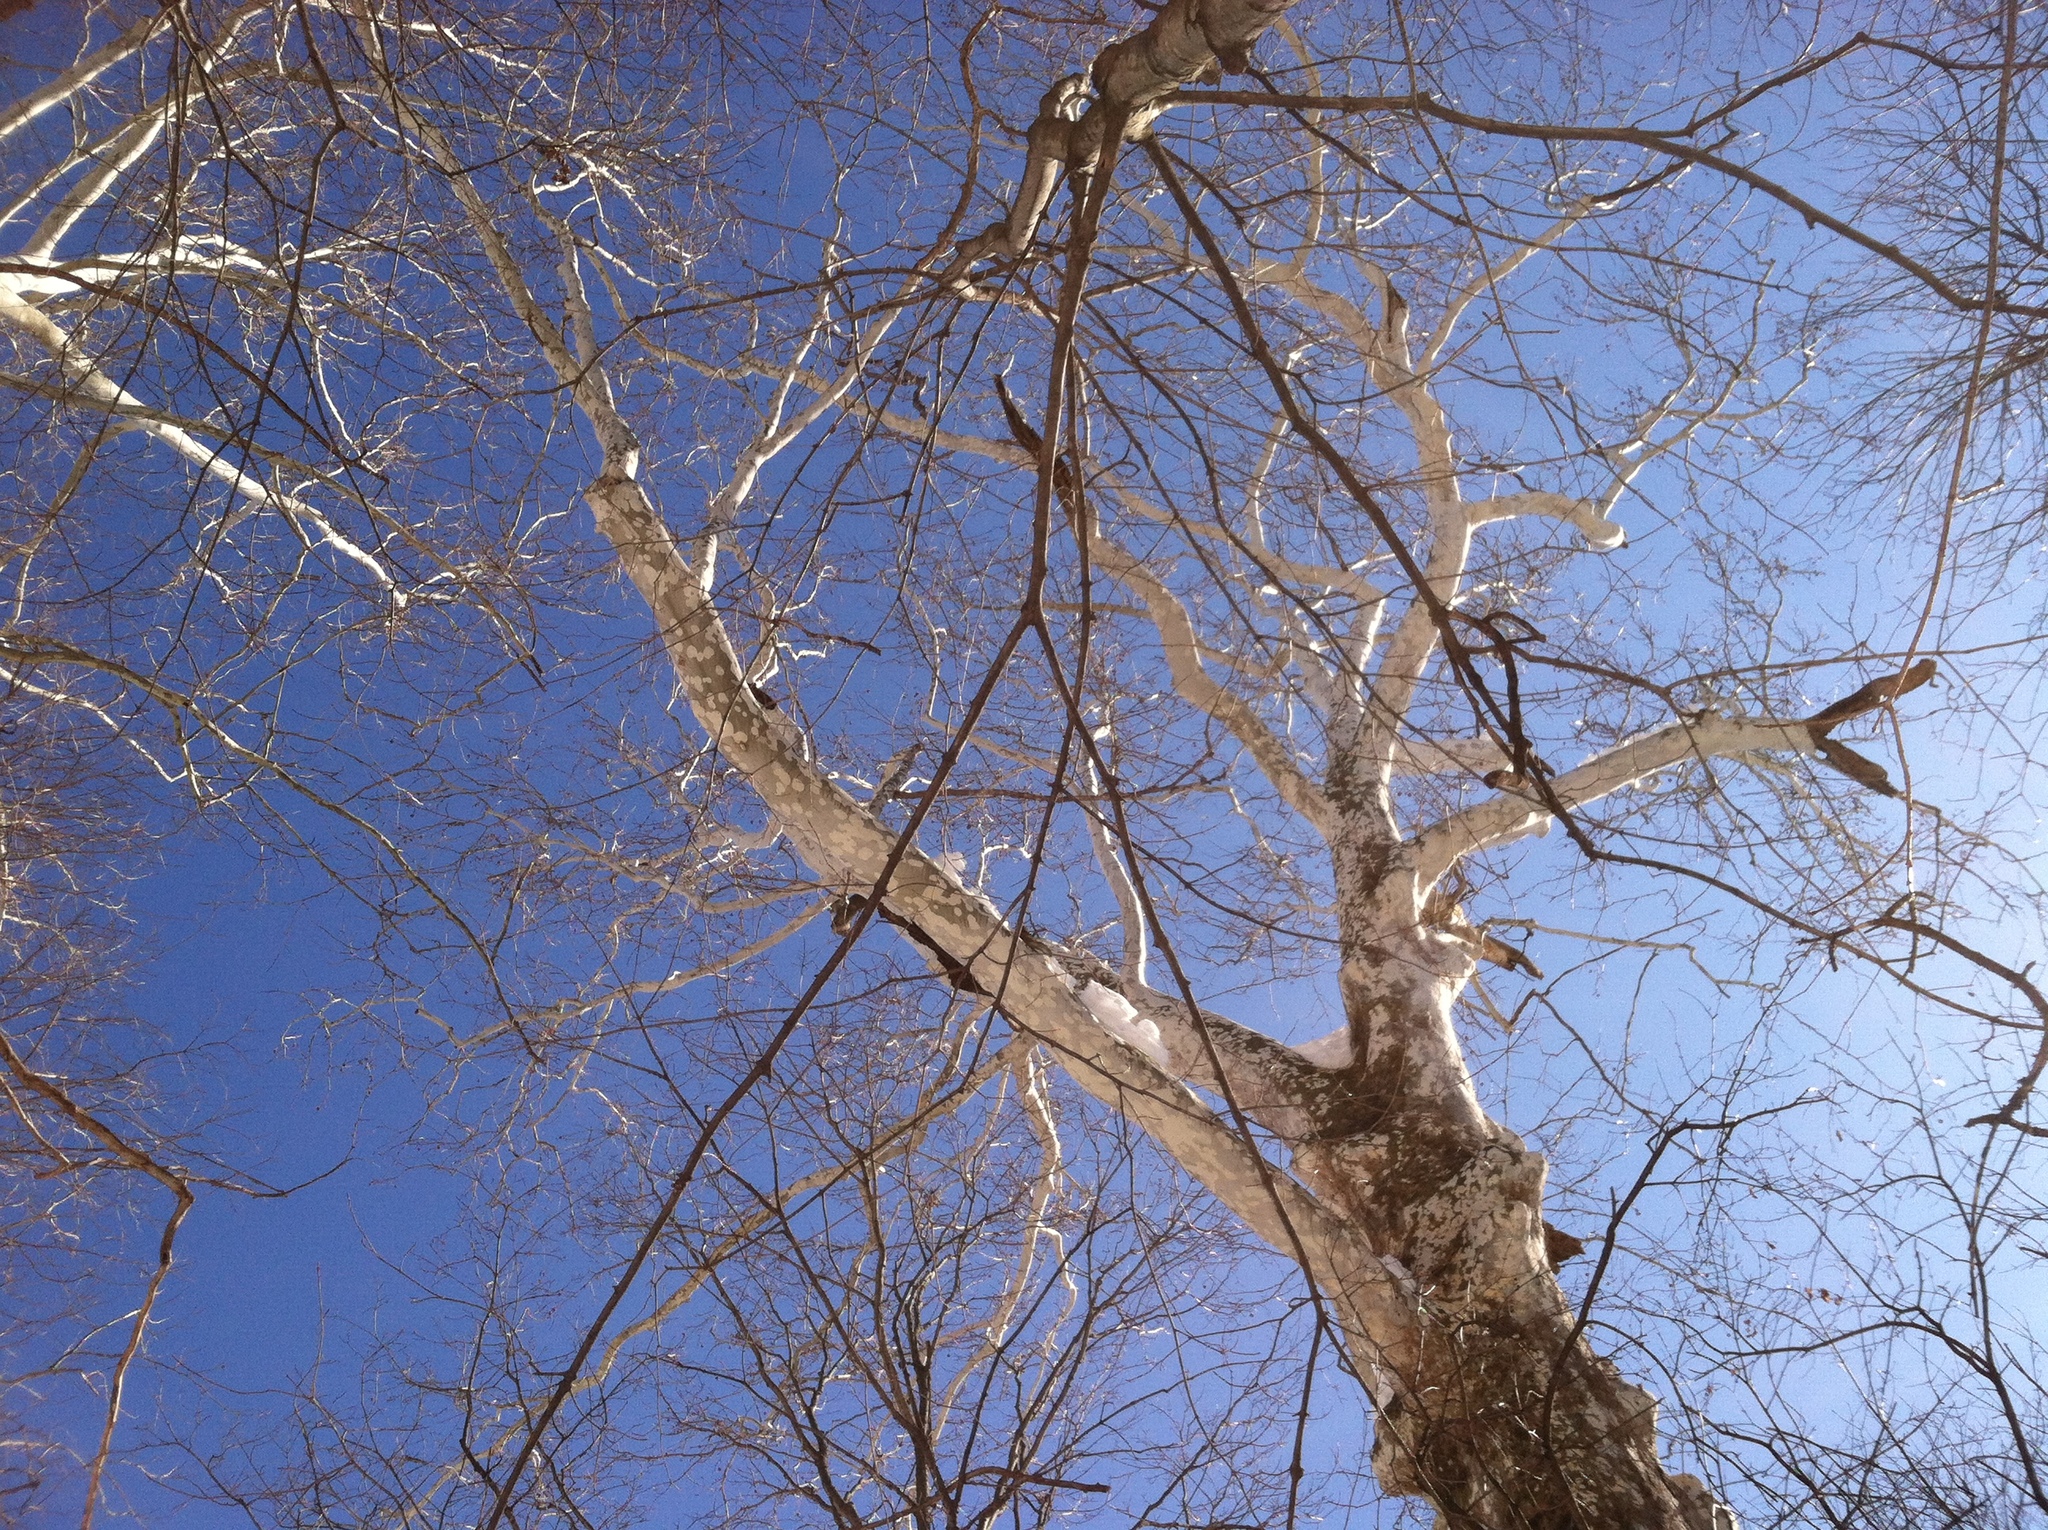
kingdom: Plantae
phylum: Tracheophyta
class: Magnoliopsida
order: Proteales
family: Platanaceae
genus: Platanus
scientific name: Platanus occidentalis
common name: American sycamore
